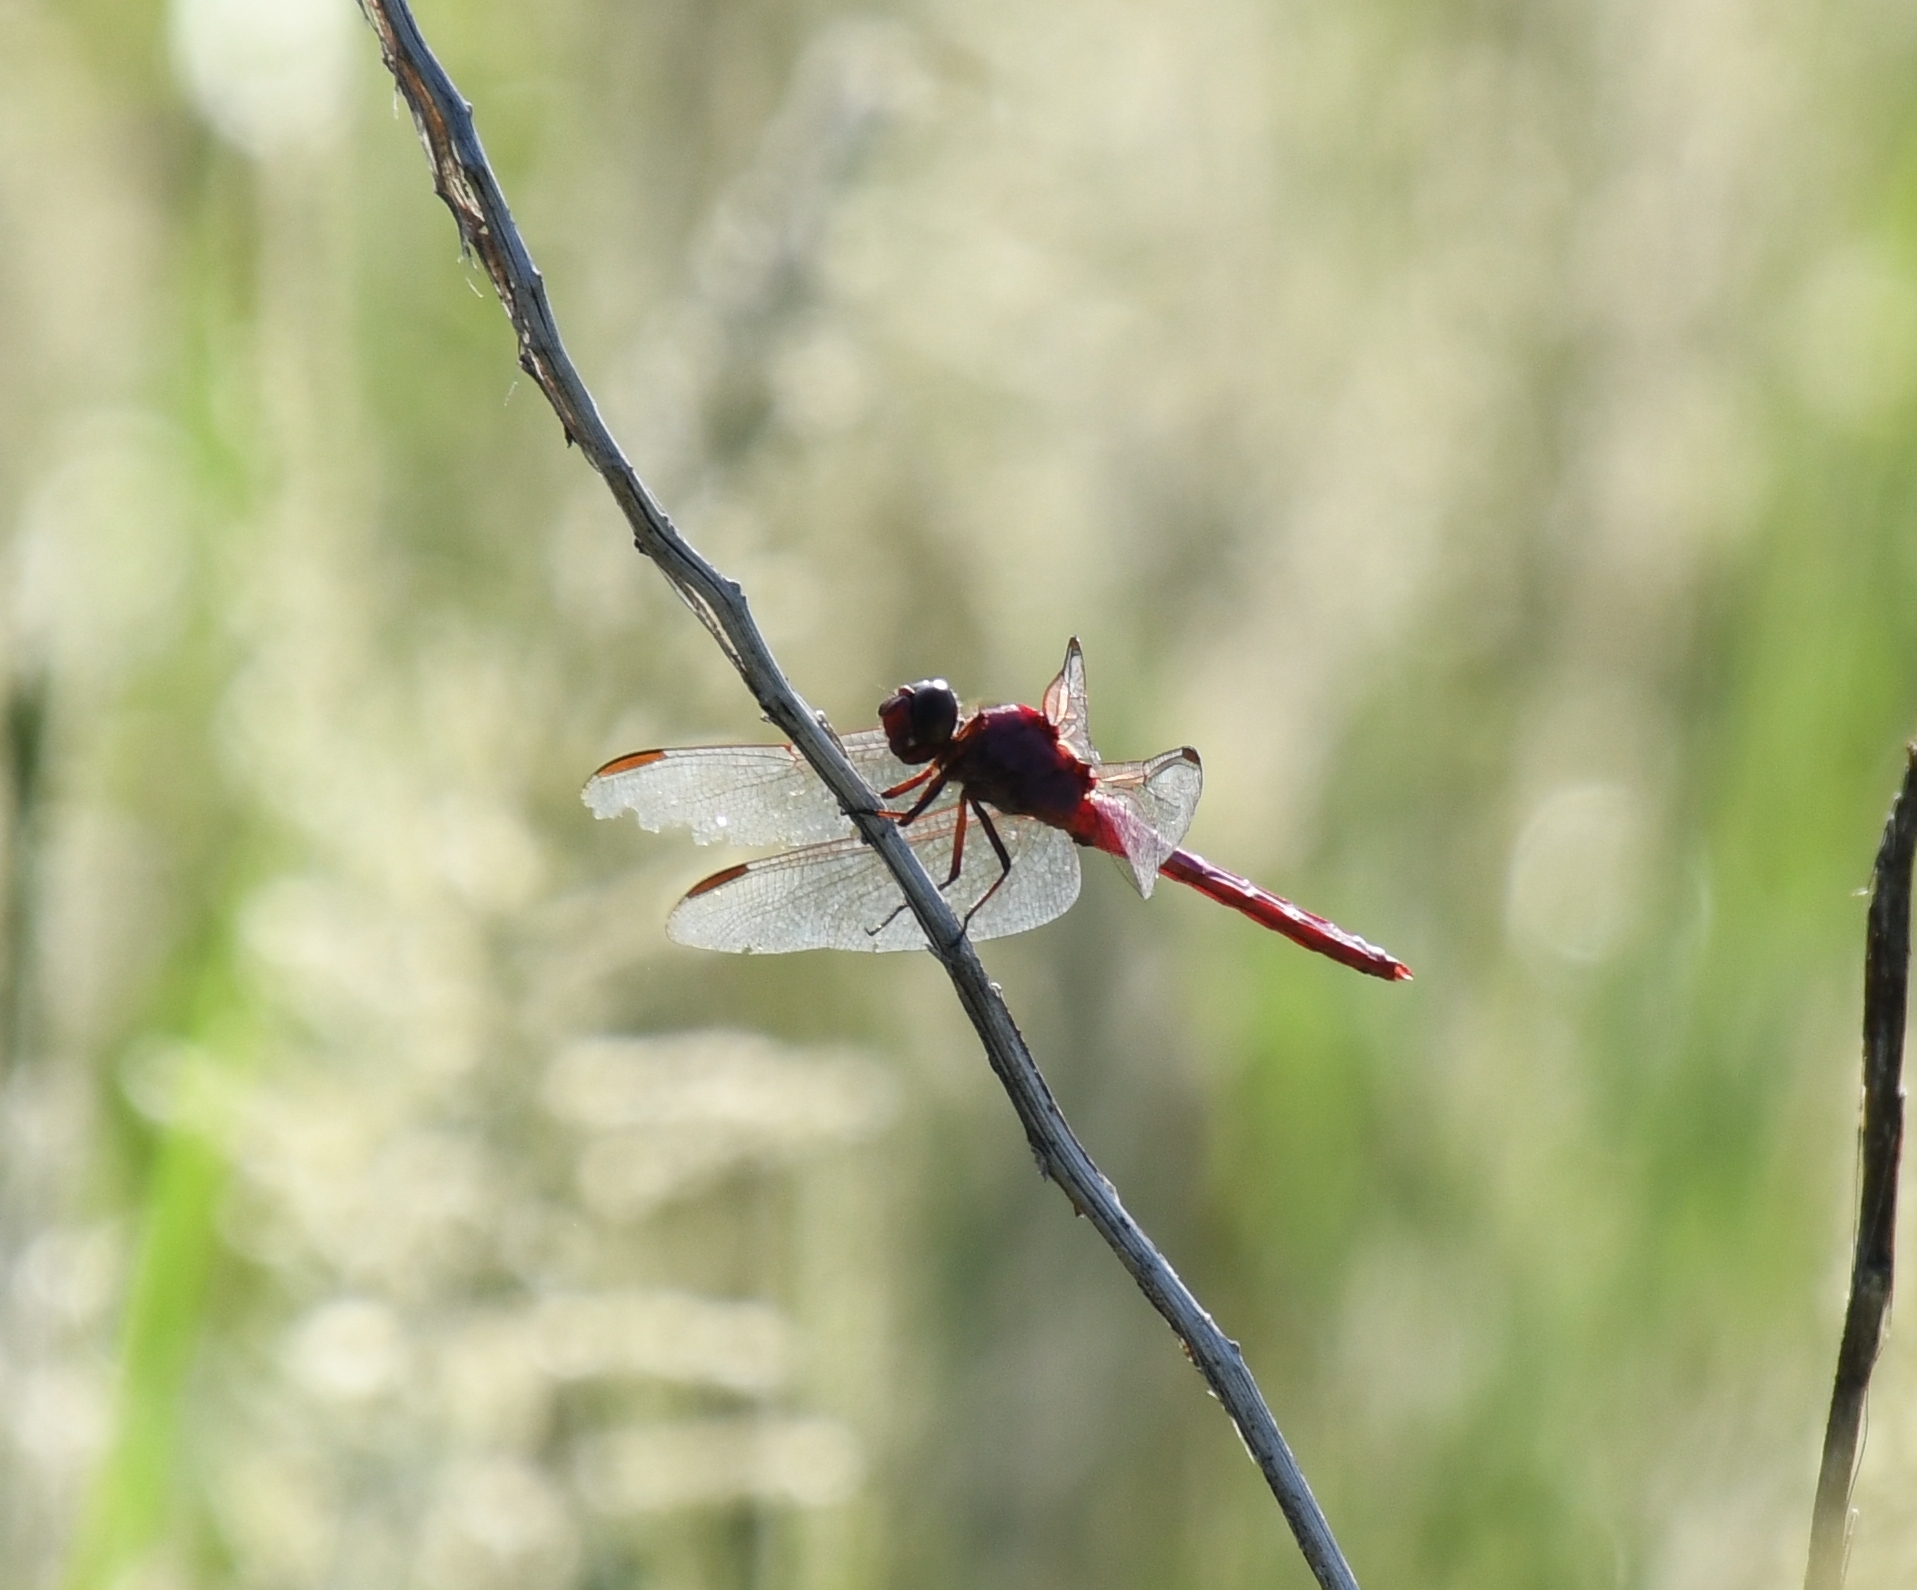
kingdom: Animalia
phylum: Arthropoda
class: Insecta
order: Odonata
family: Libellulidae
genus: Orthemis
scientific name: Orthemis ferruginea
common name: Roseate skimmer
